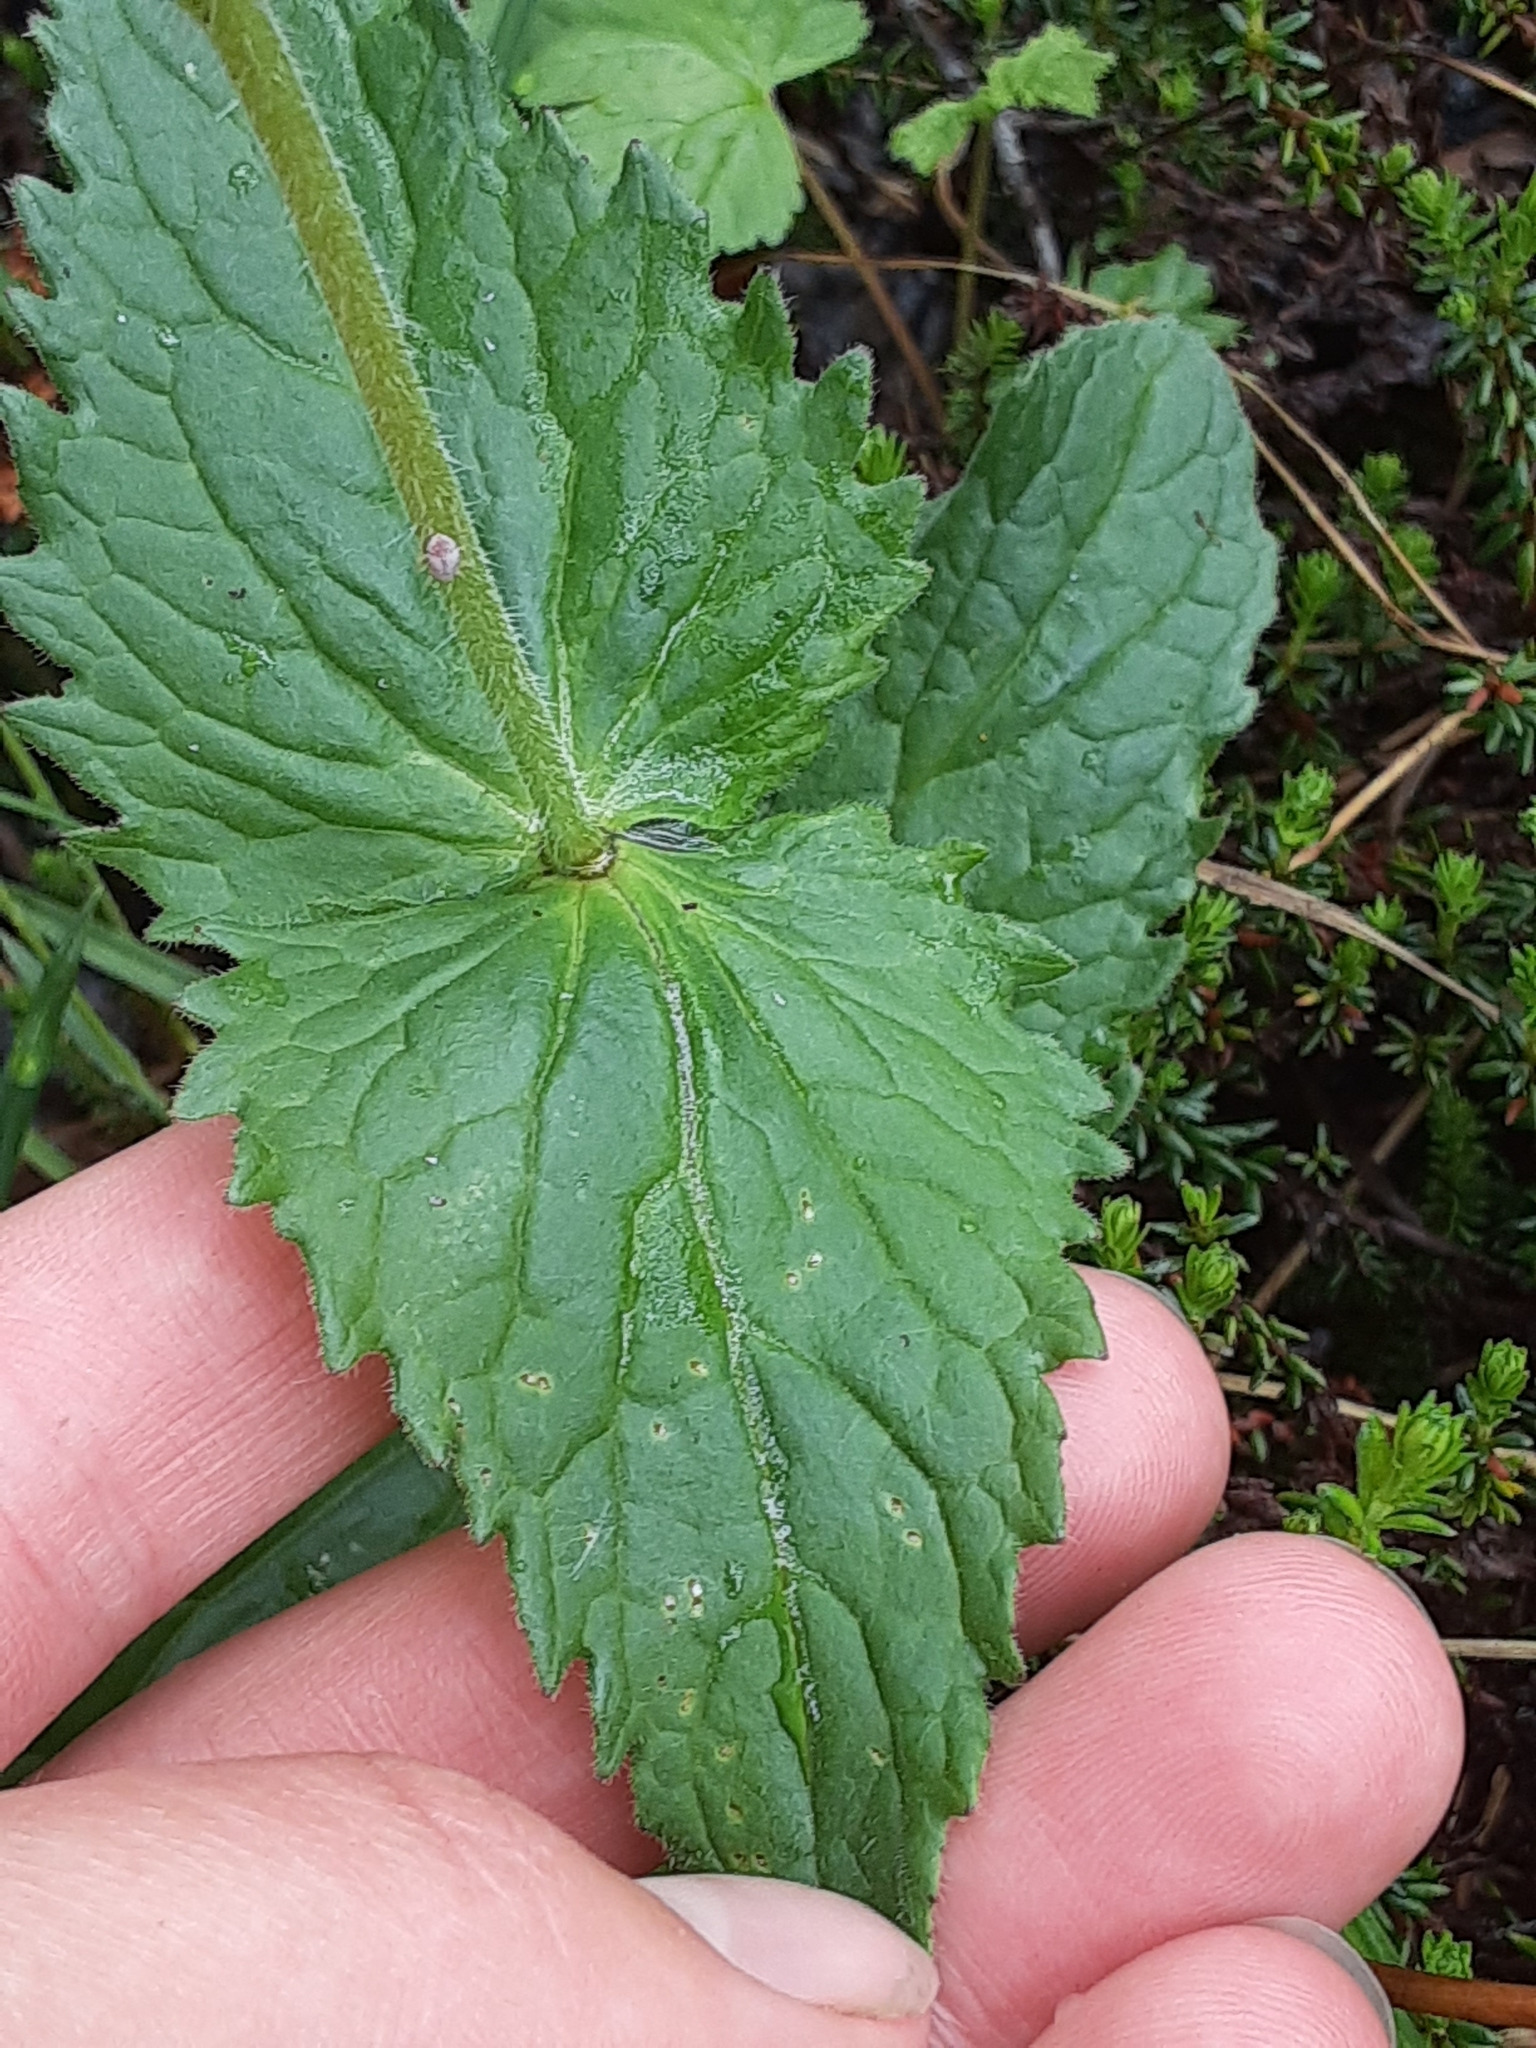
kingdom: Plantae
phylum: Tracheophyta
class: Magnoliopsida
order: Asterales
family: Asteraceae
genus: Arnica
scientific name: Arnica cordifolia
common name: Heart-leaf arnica
